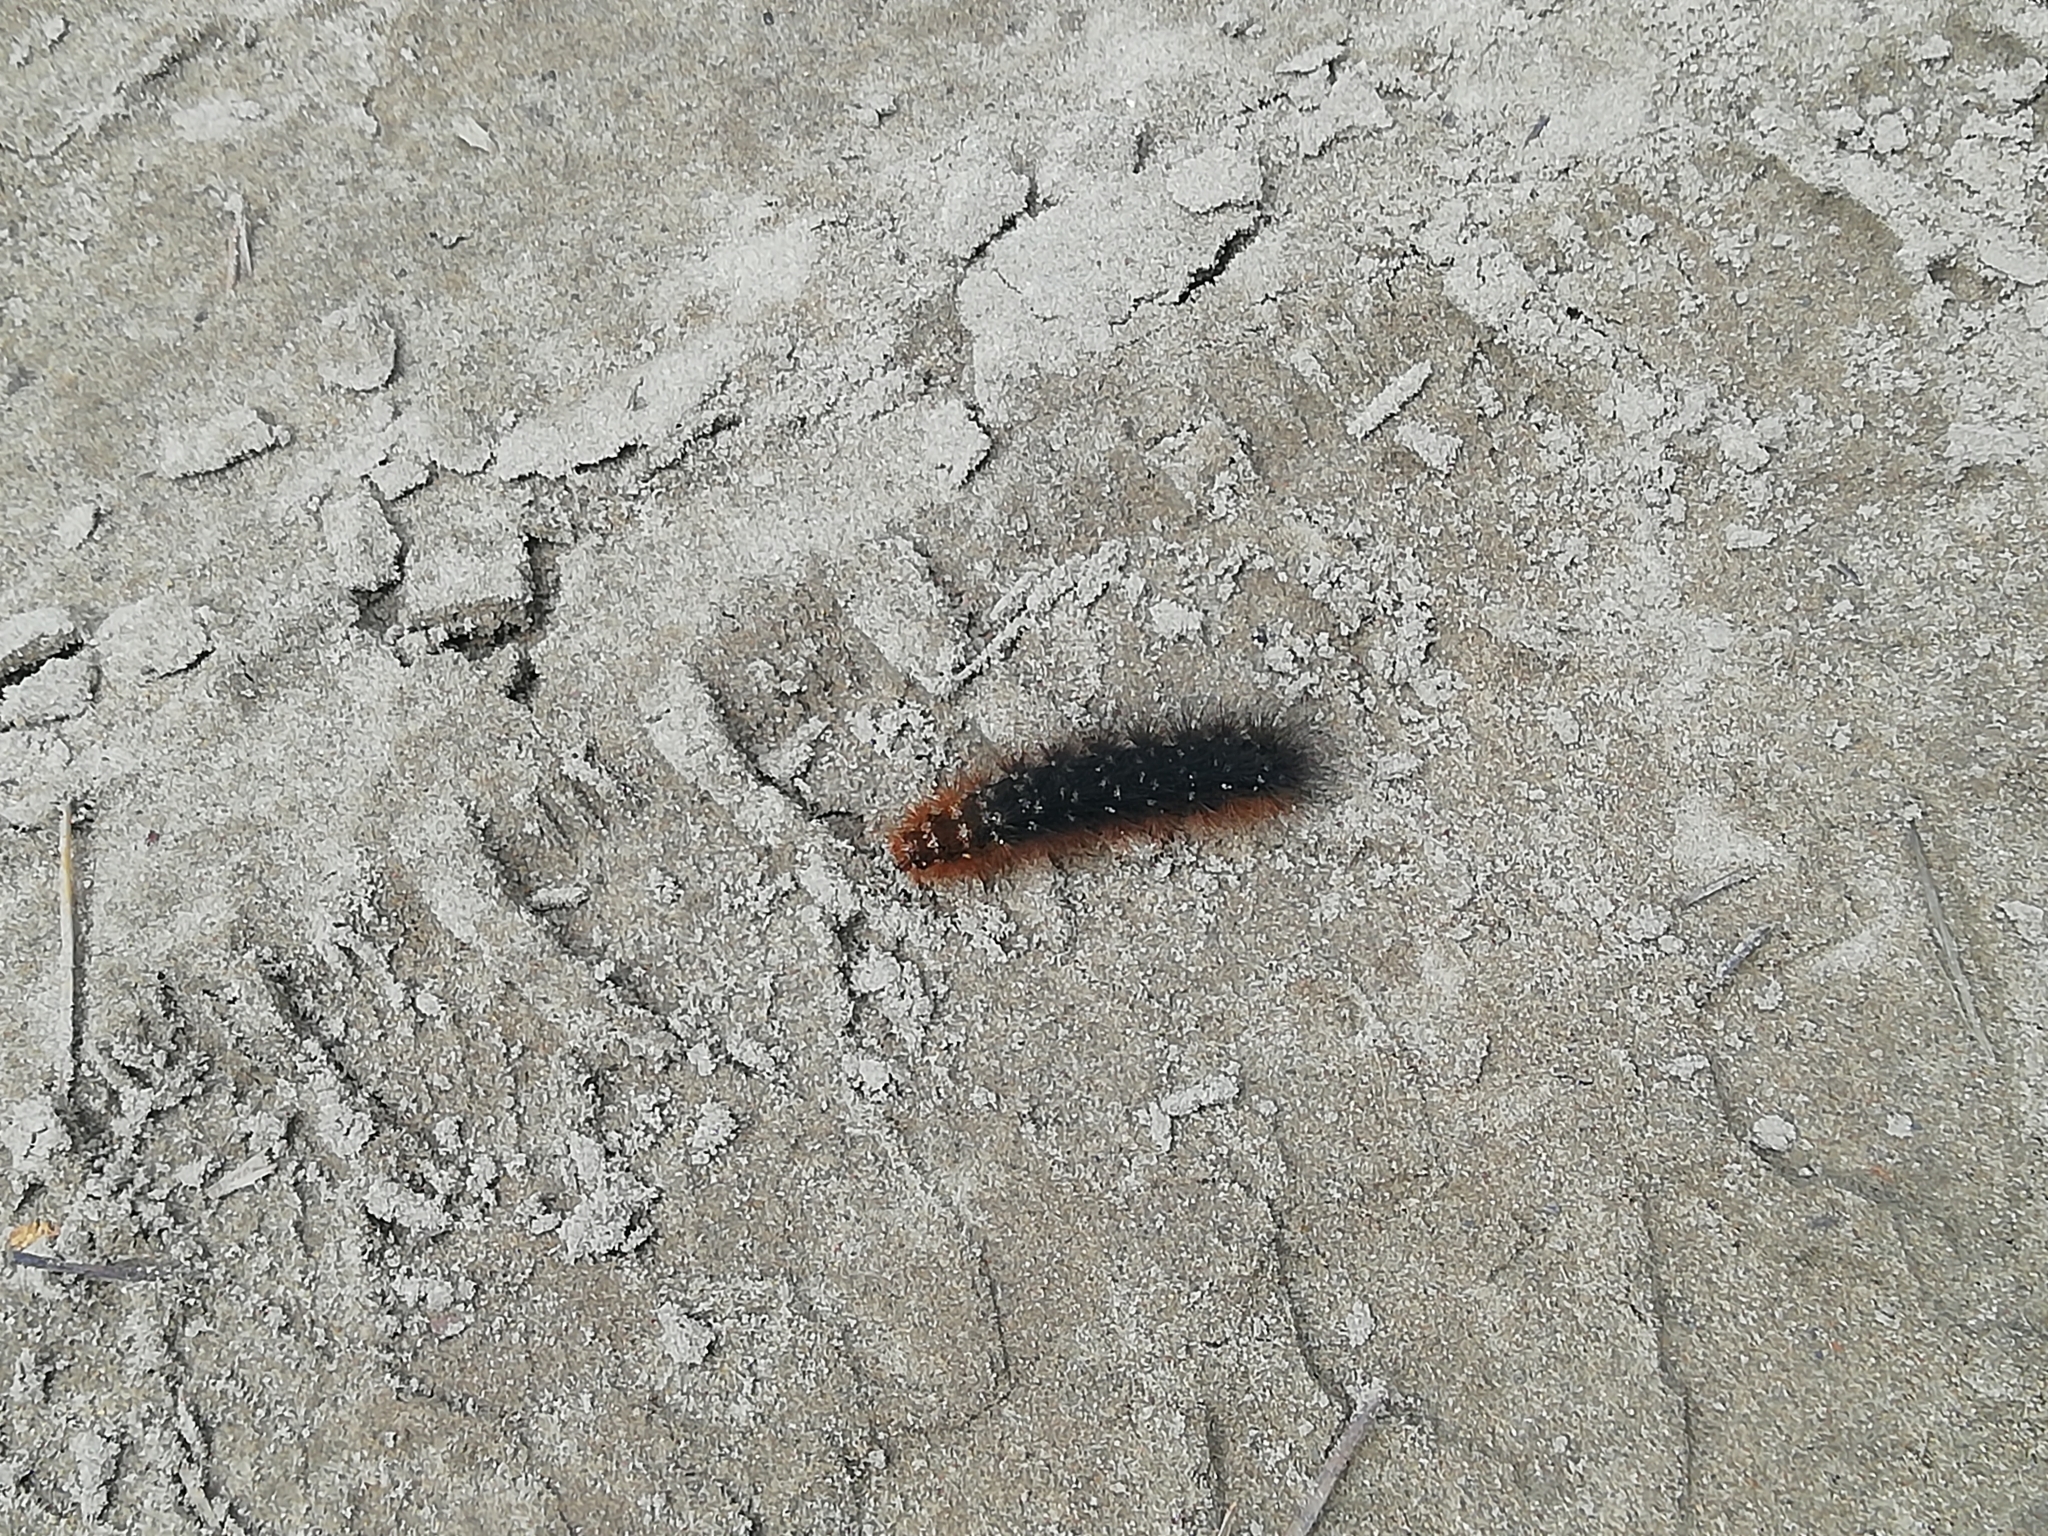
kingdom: Animalia
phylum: Arthropoda
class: Insecta
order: Lepidoptera
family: Erebidae
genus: Arctia
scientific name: Arctia caja
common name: Garden tiger
